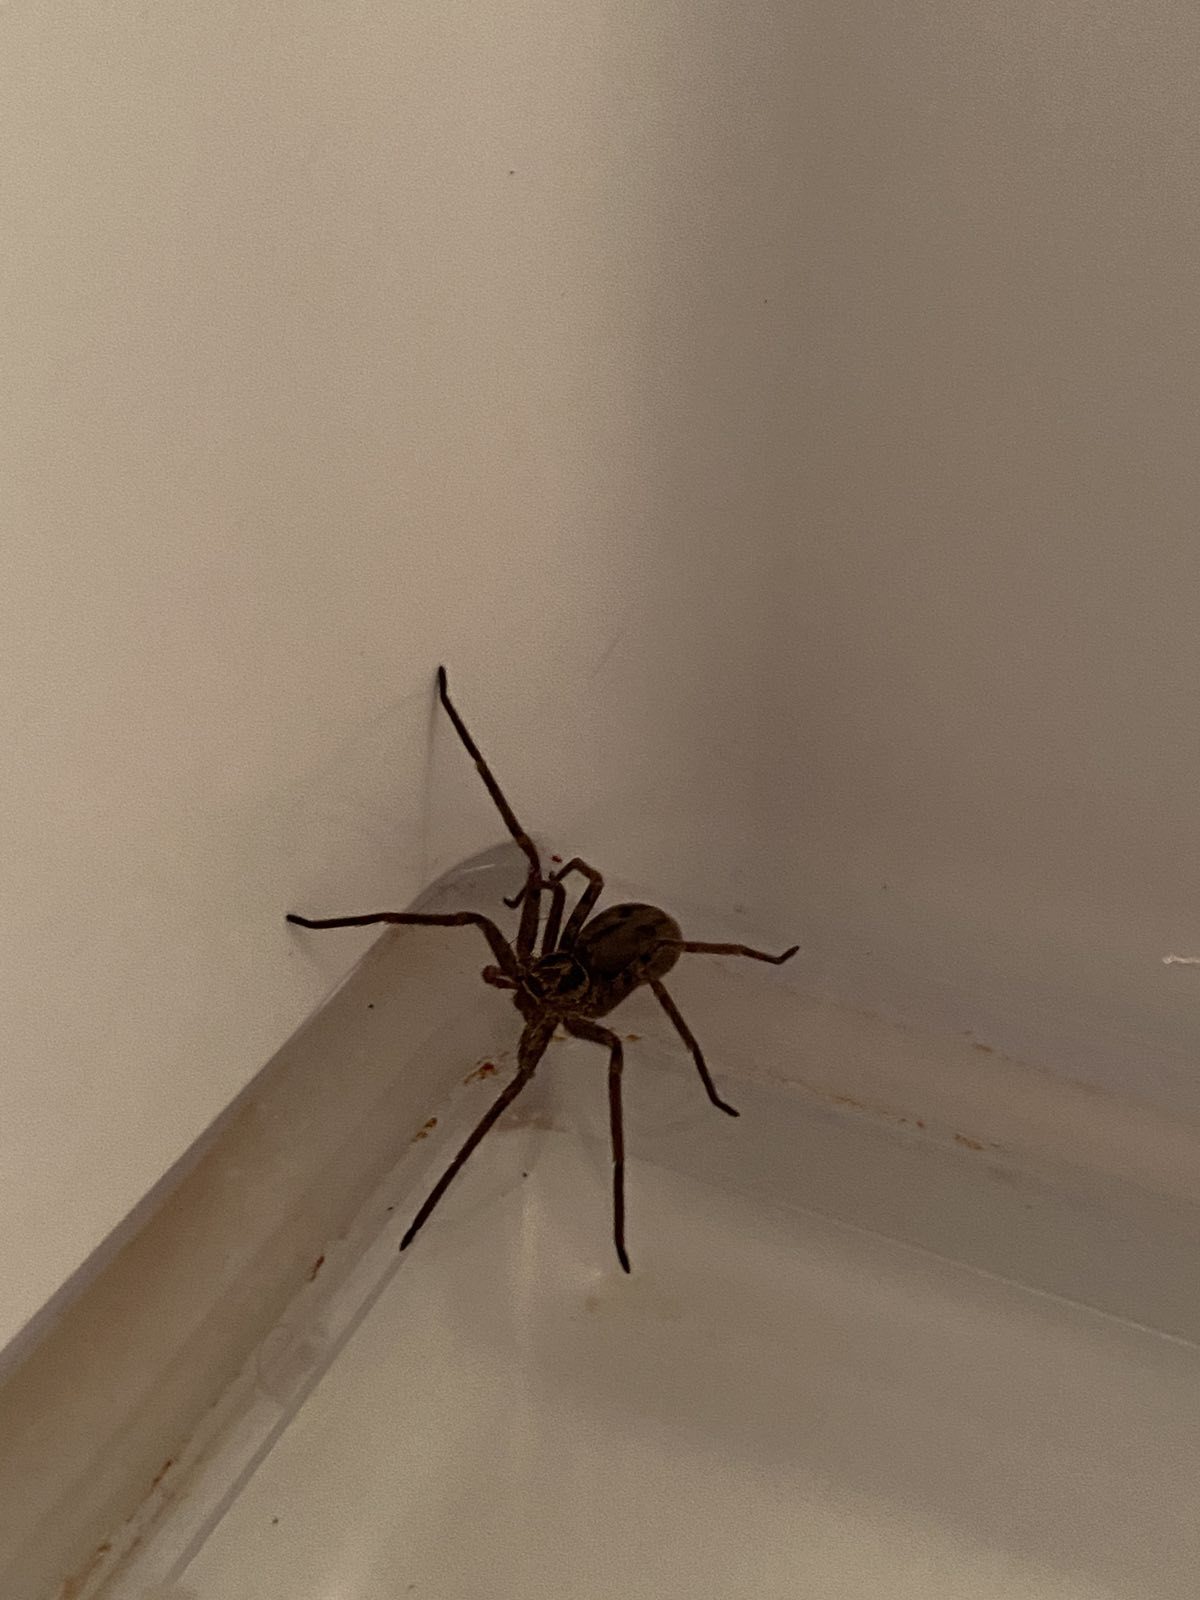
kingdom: Animalia
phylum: Arthropoda
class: Arachnida
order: Araneae
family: Sparassidae
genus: Heteropoda
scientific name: Heteropoda venatoria
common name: Huntsman spider
